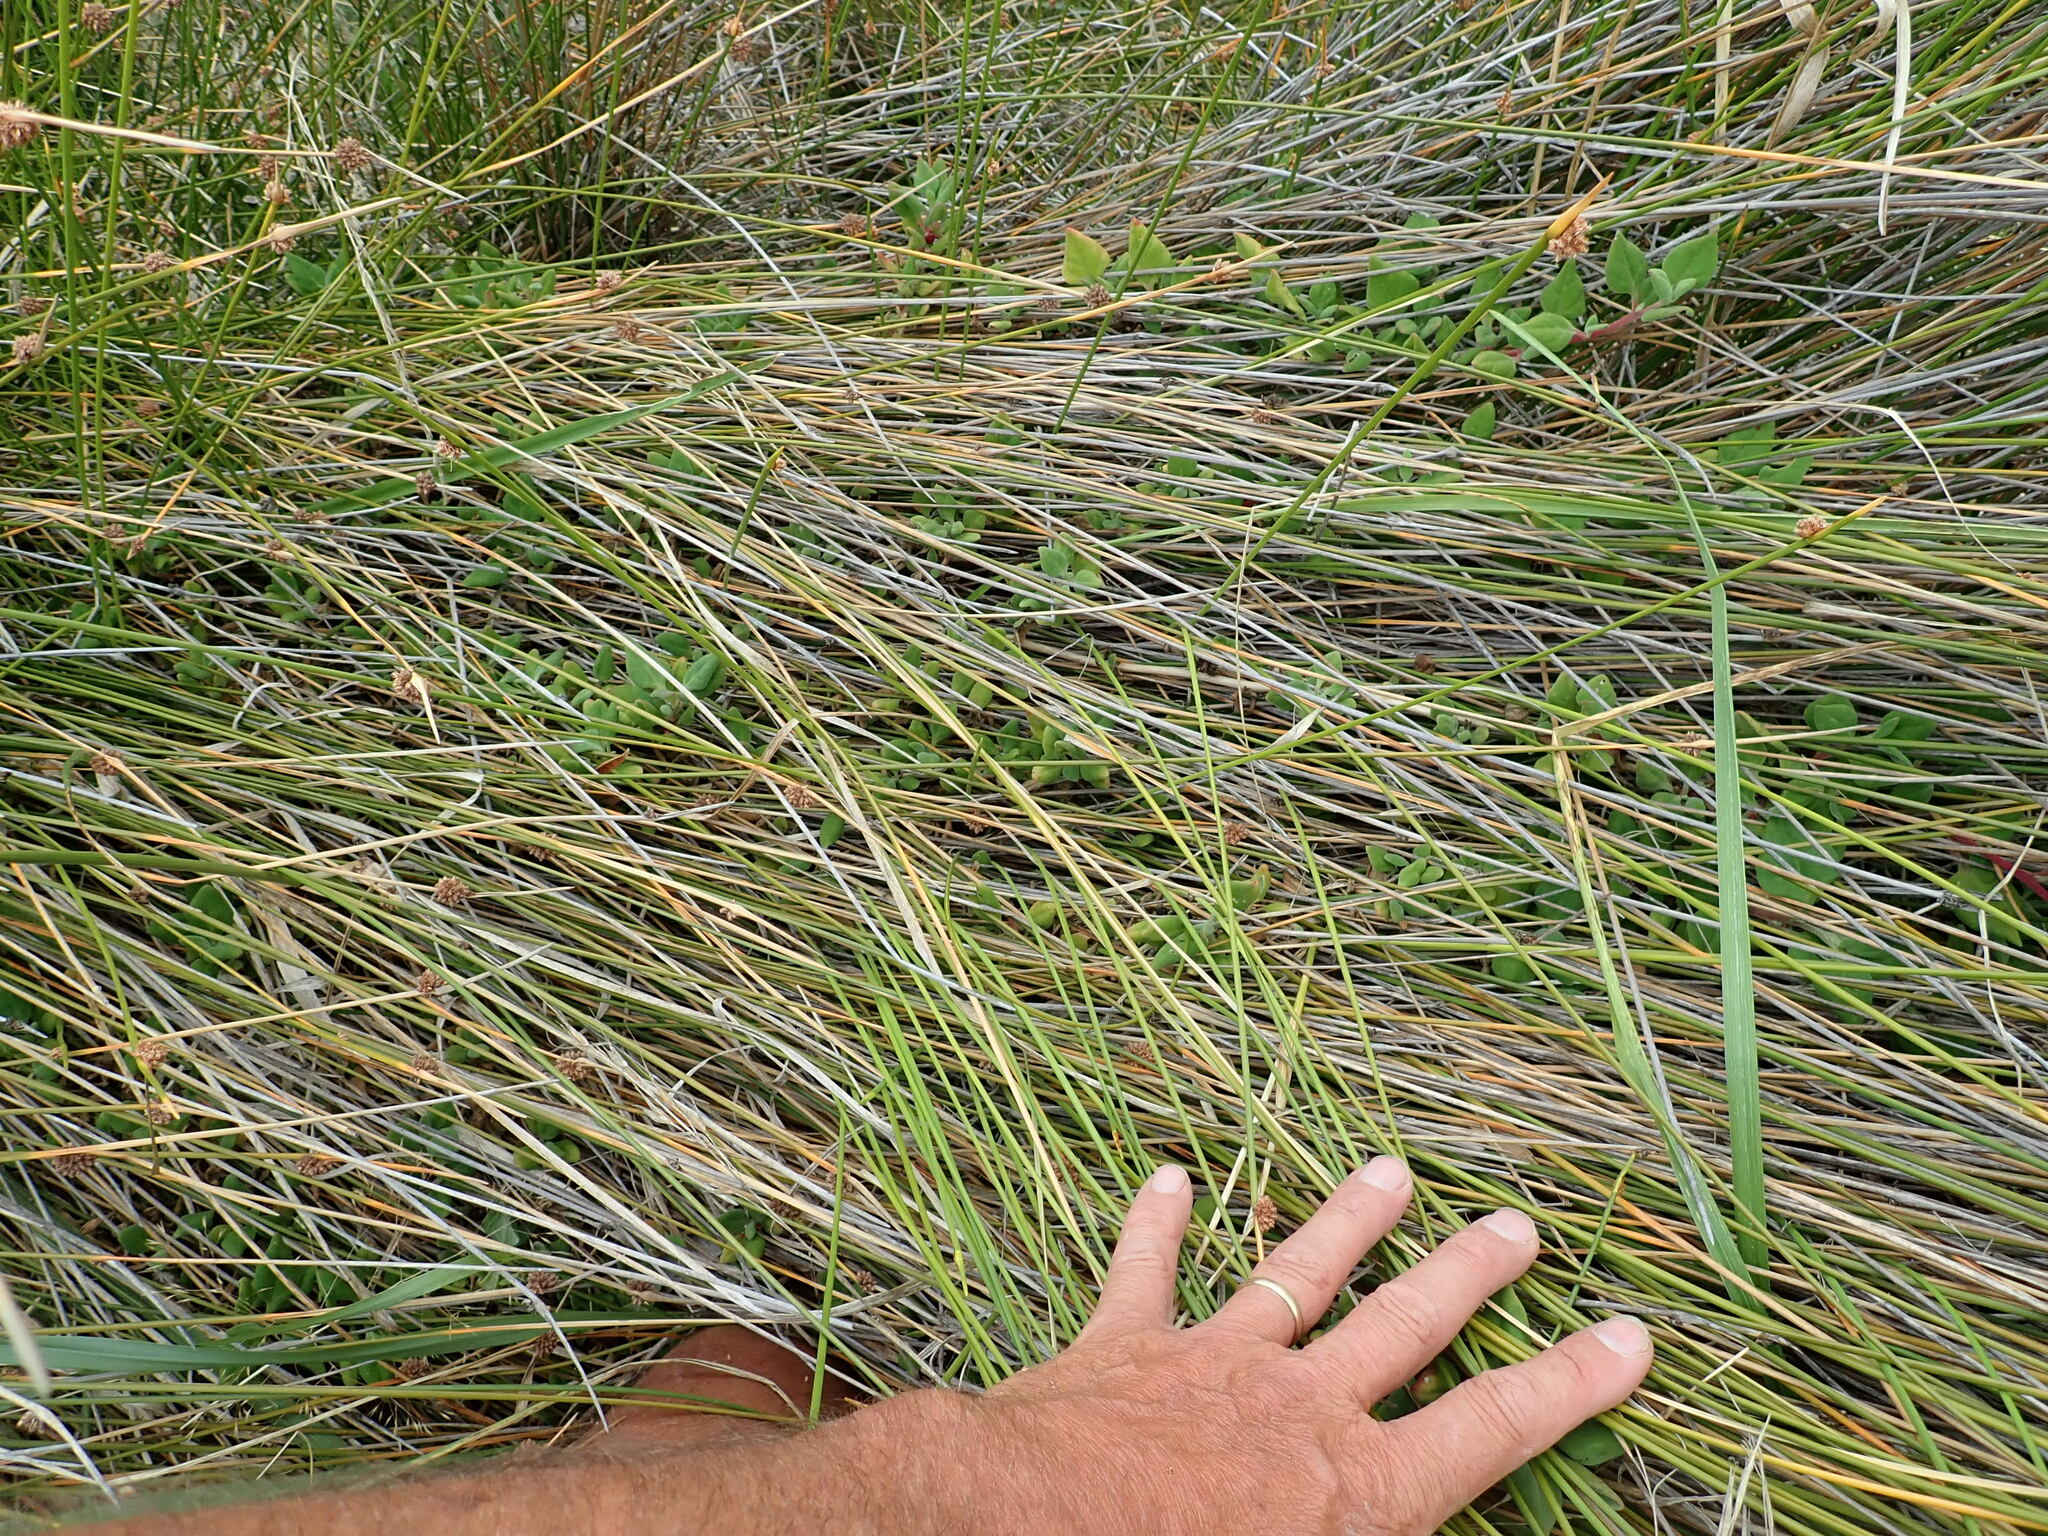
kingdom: Plantae
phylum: Tracheophyta
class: Magnoliopsida
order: Caryophyllales
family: Aizoaceae
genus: Tetragonia
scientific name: Tetragonia implexicoma
